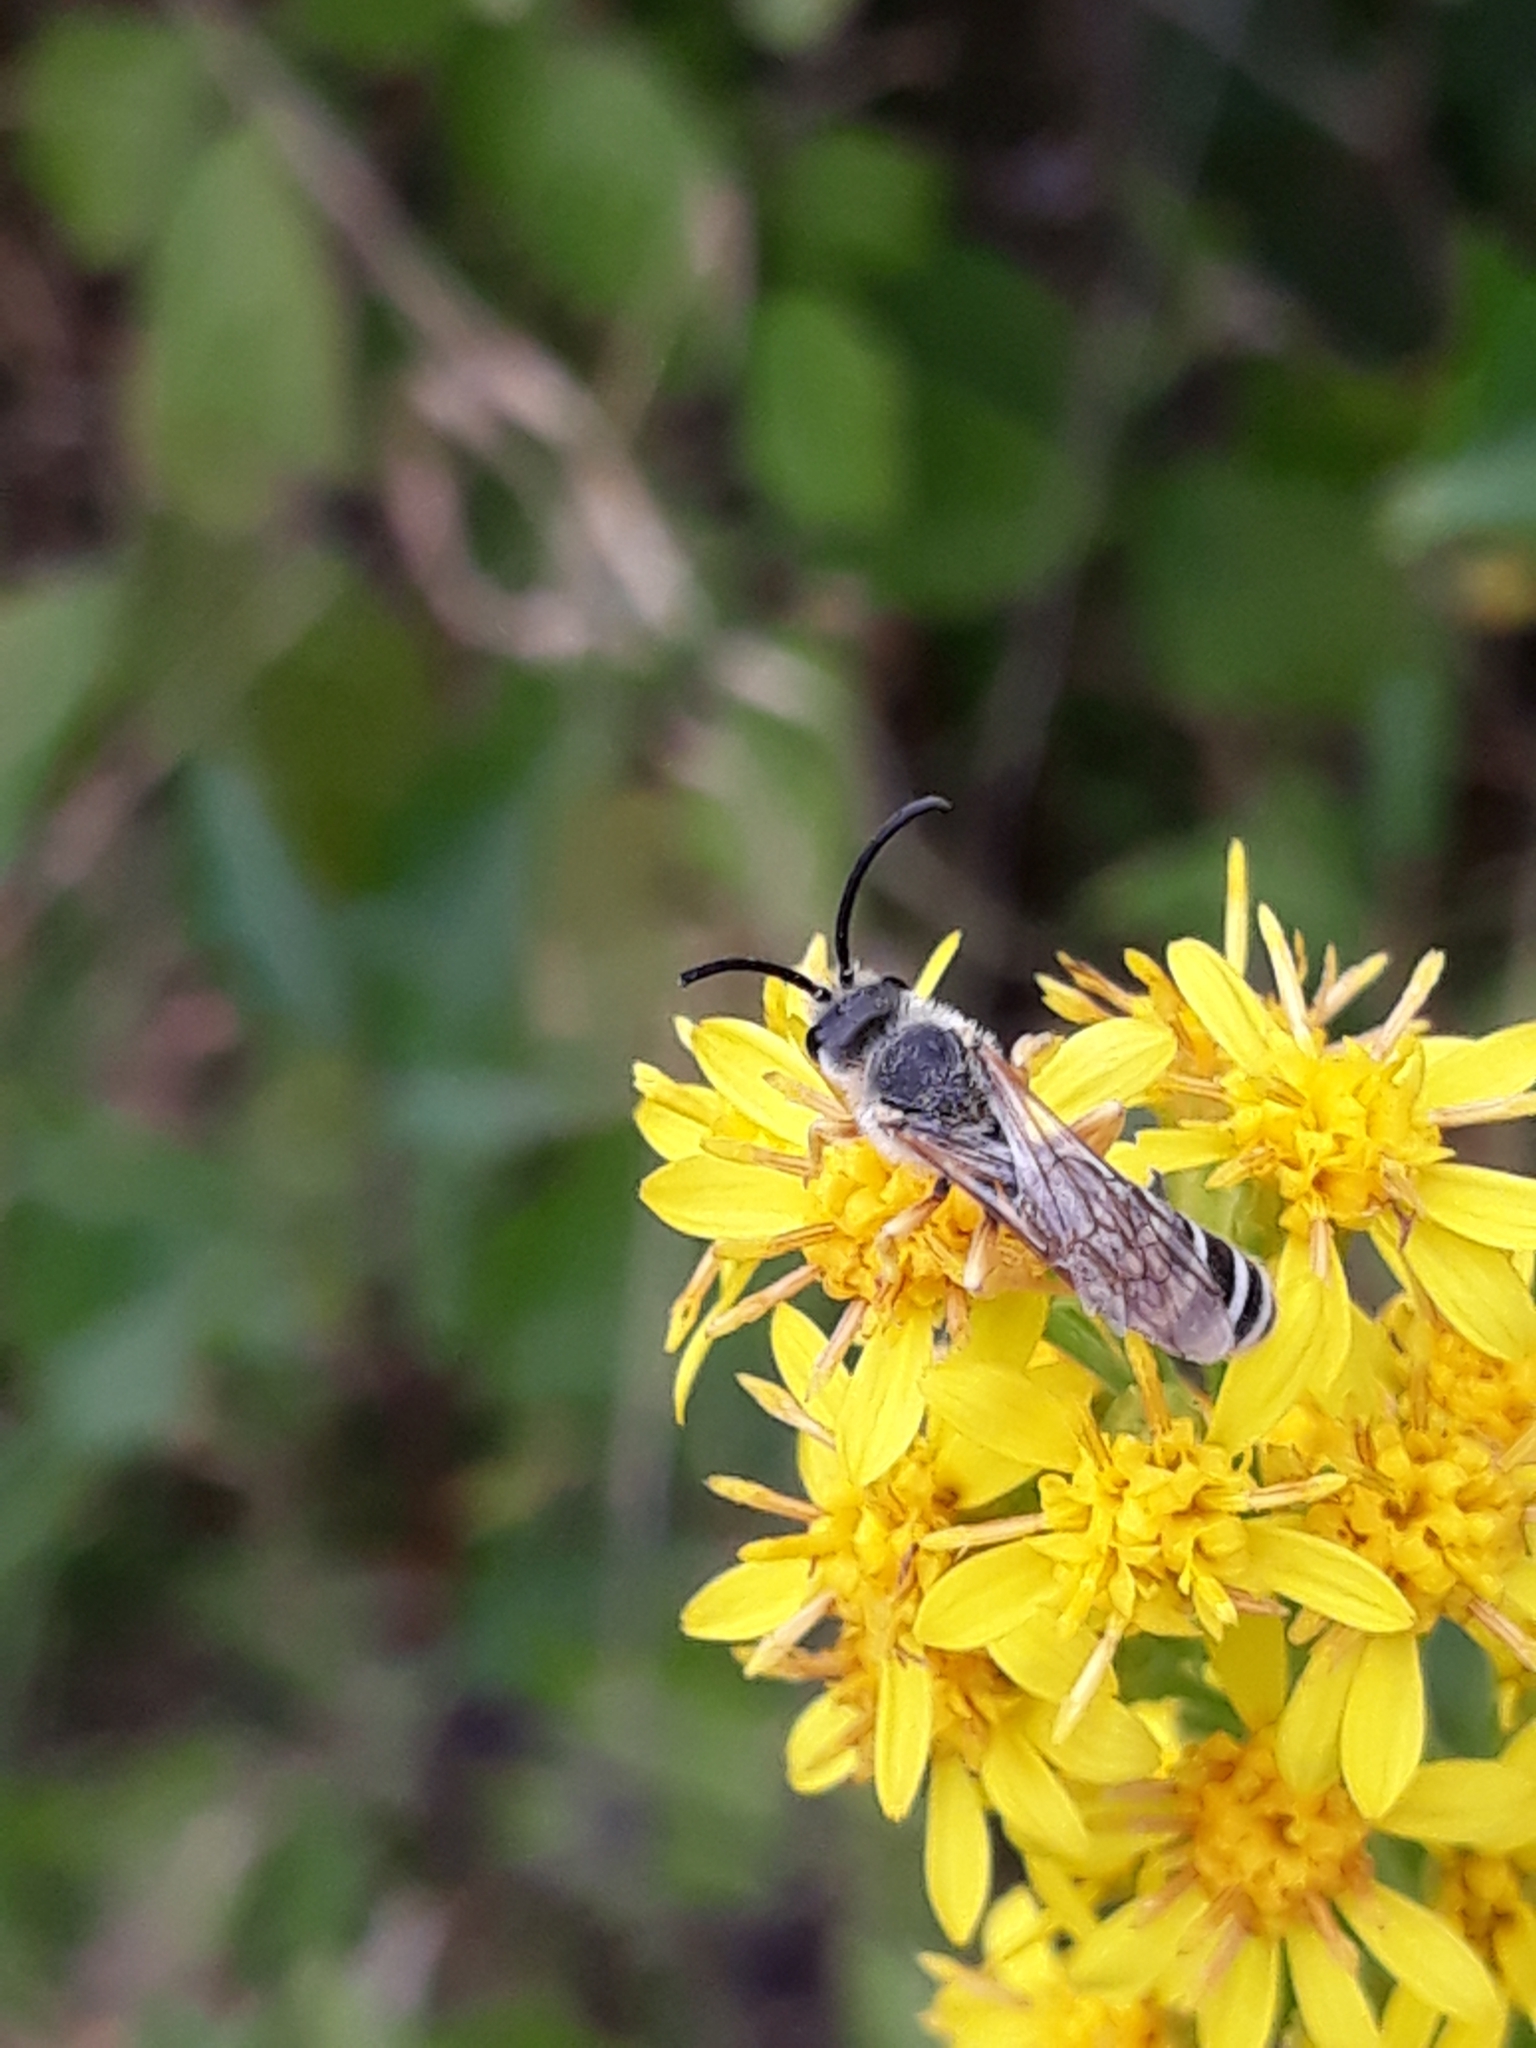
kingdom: Animalia
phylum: Arthropoda
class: Insecta
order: Hymenoptera
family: Halictidae
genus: Halictus
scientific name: Halictus scabiosae
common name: Great banded furrow bee
